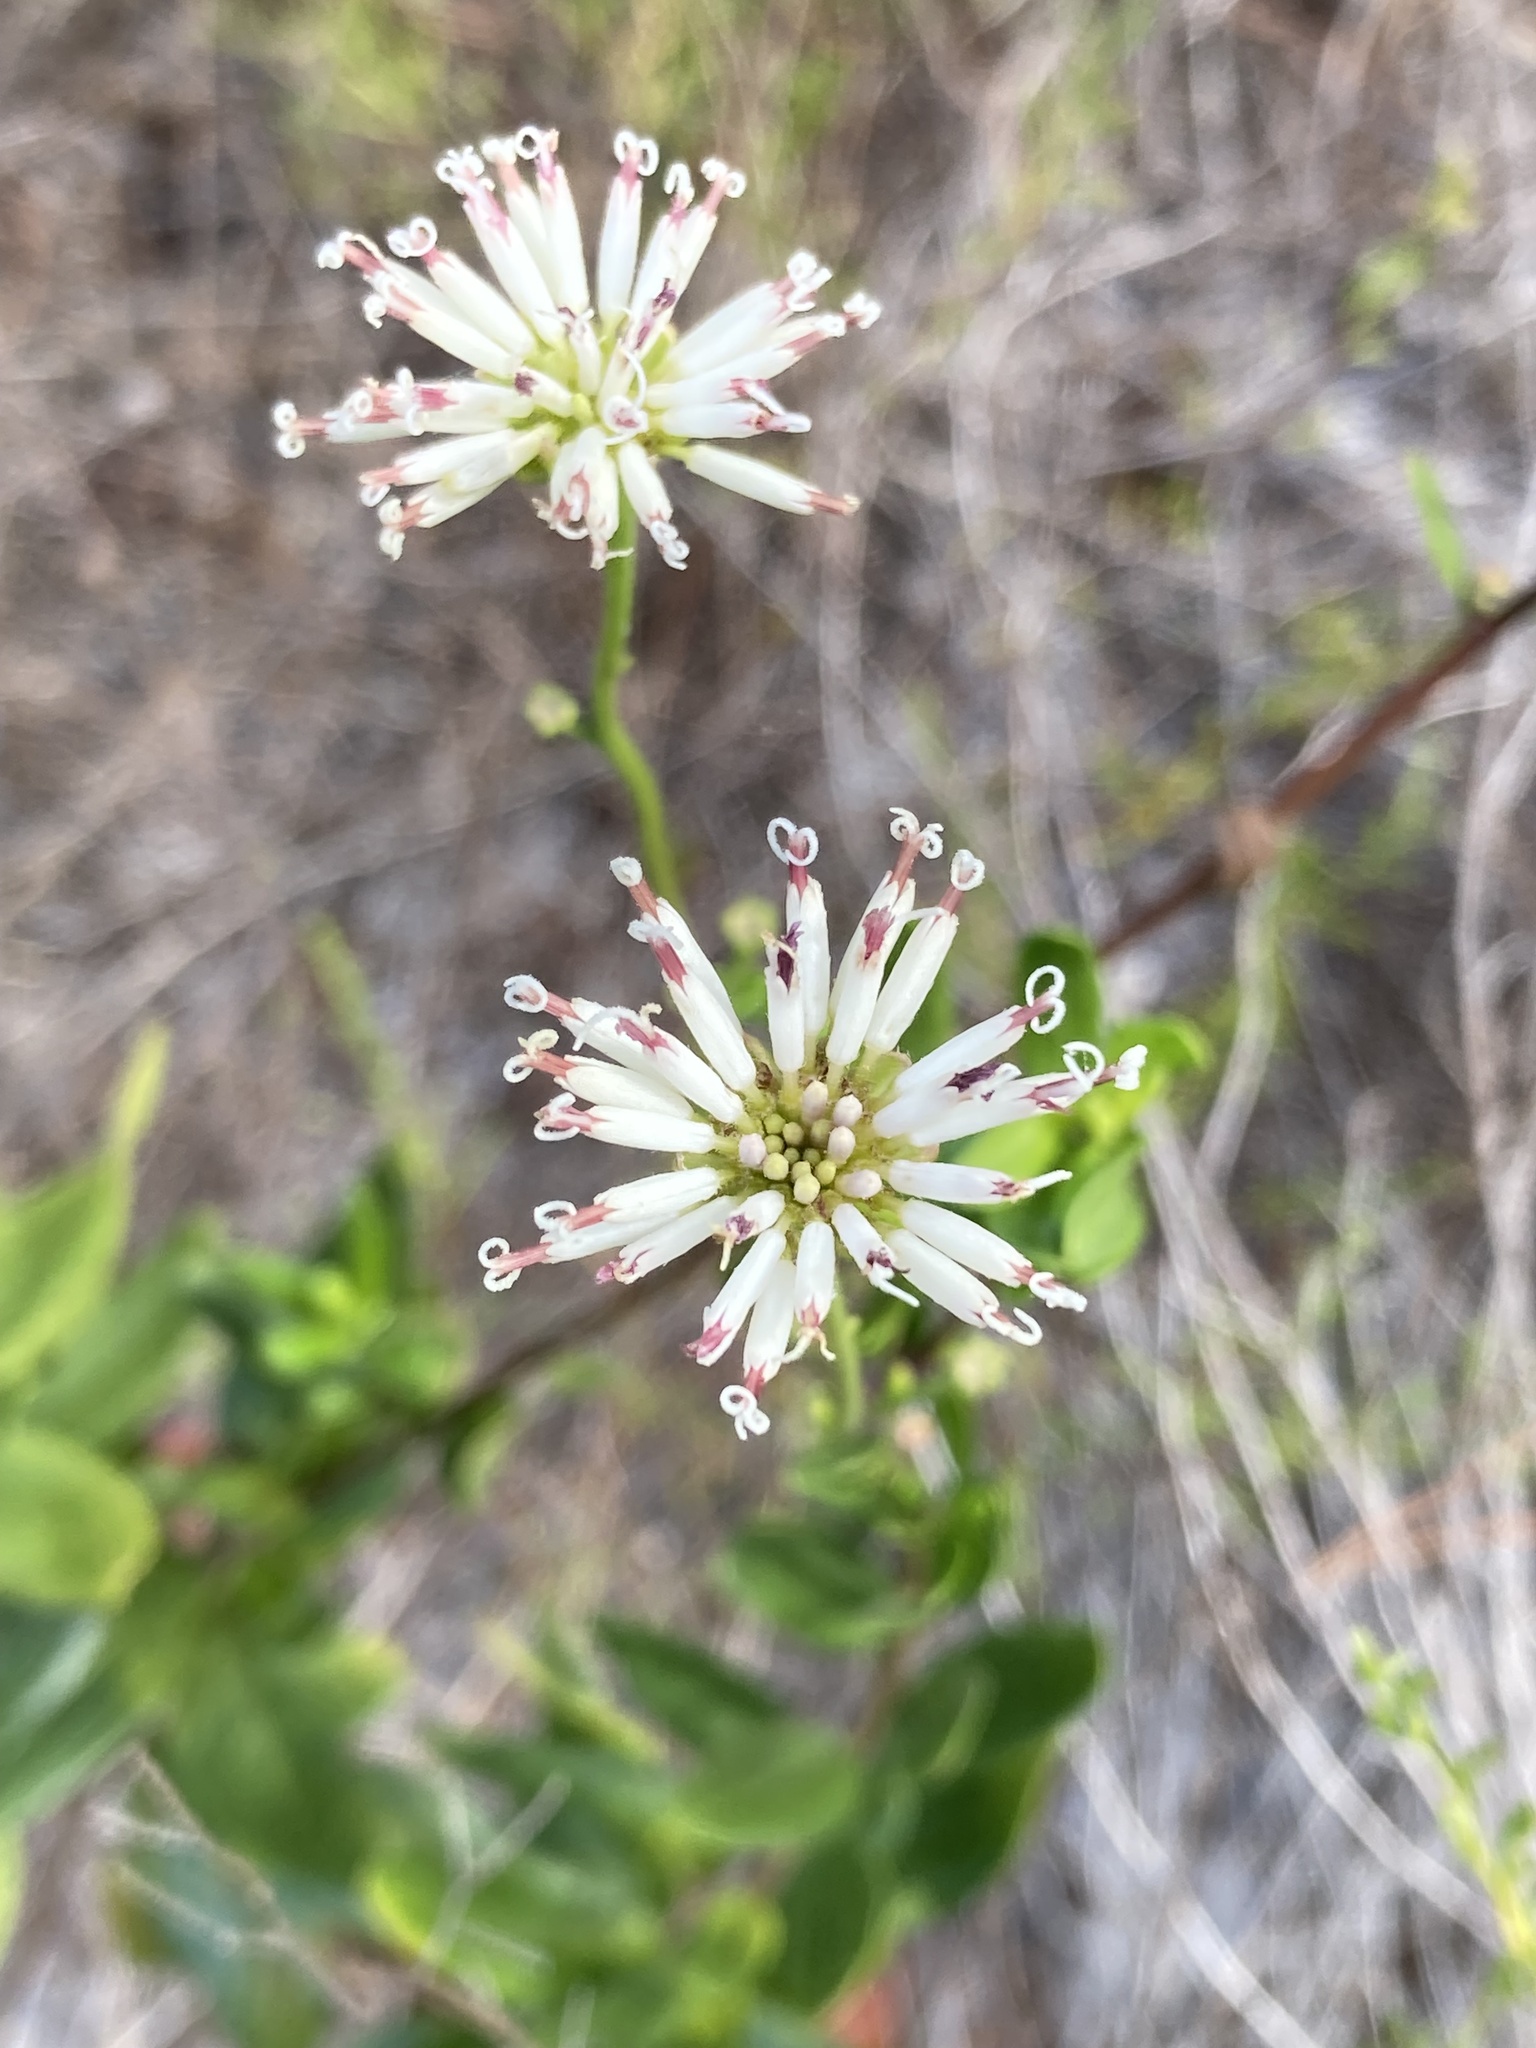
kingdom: Plantae
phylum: Tracheophyta
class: Magnoliopsida
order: Asterales
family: Asteraceae
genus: Palafoxia
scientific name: Palafoxia feayi
